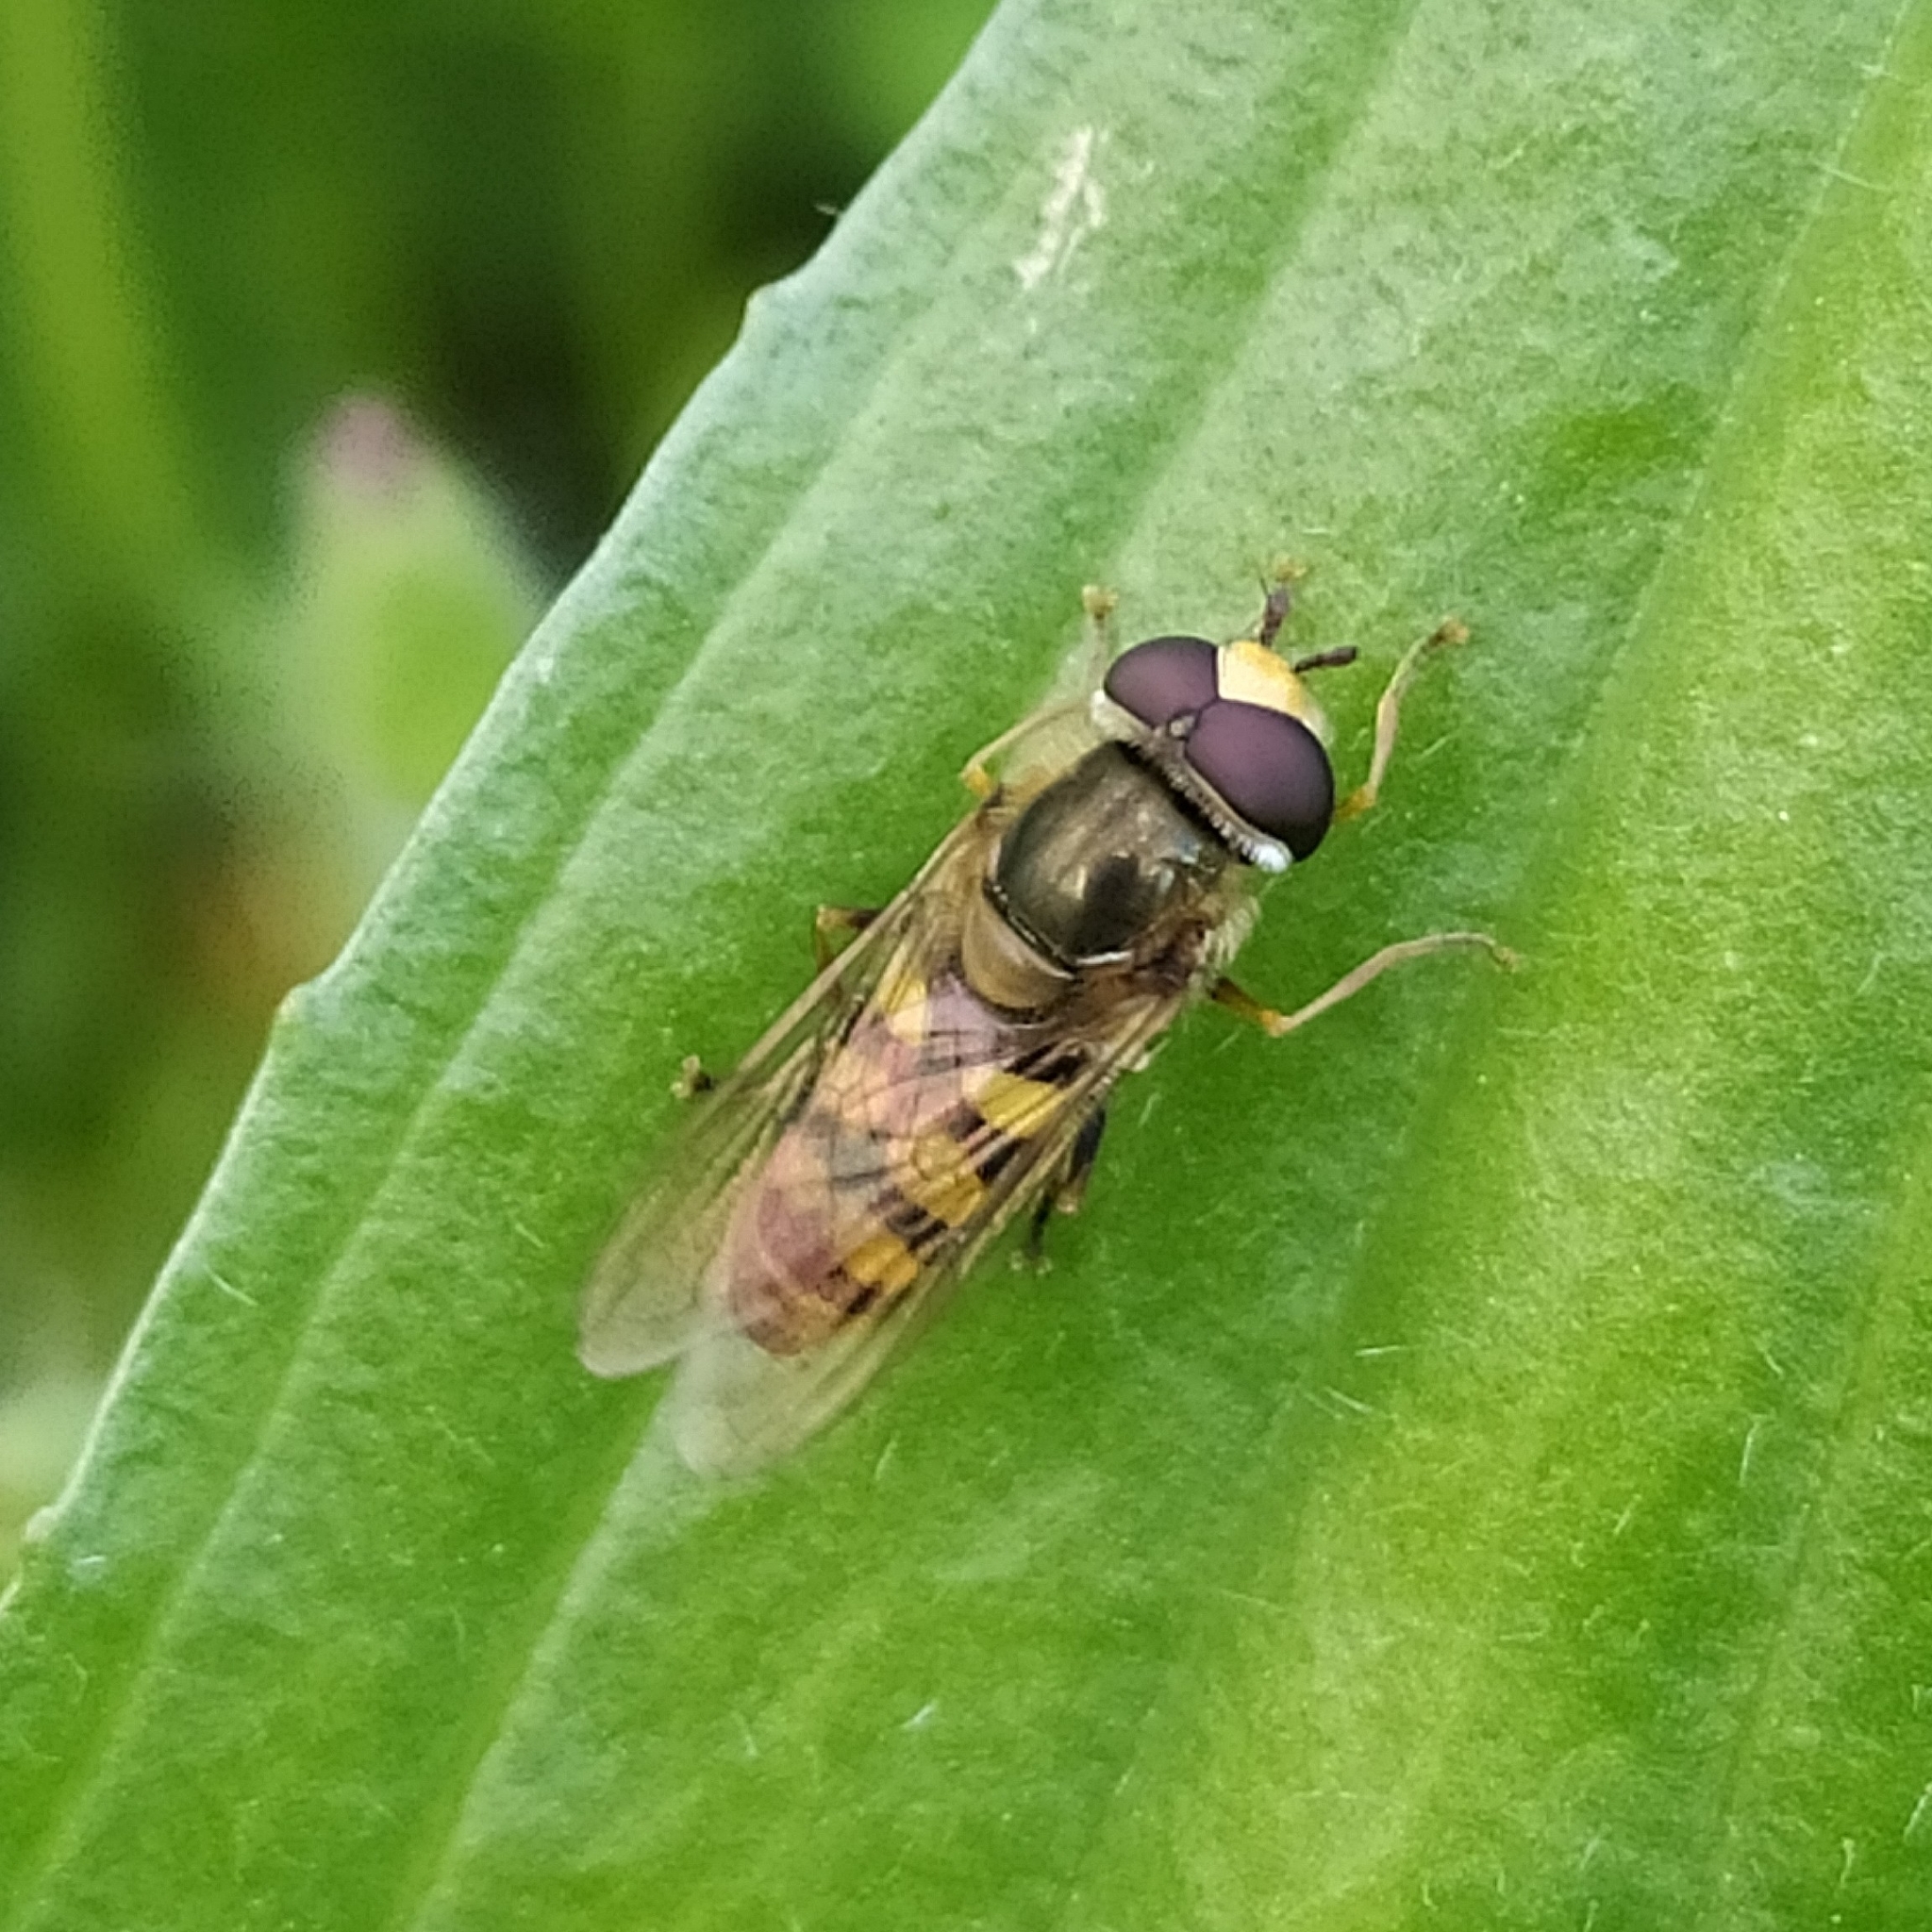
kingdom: Animalia
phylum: Arthropoda
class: Insecta
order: Diptera
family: Syrphidae
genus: Eupeodes
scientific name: Eupeodes corollae
